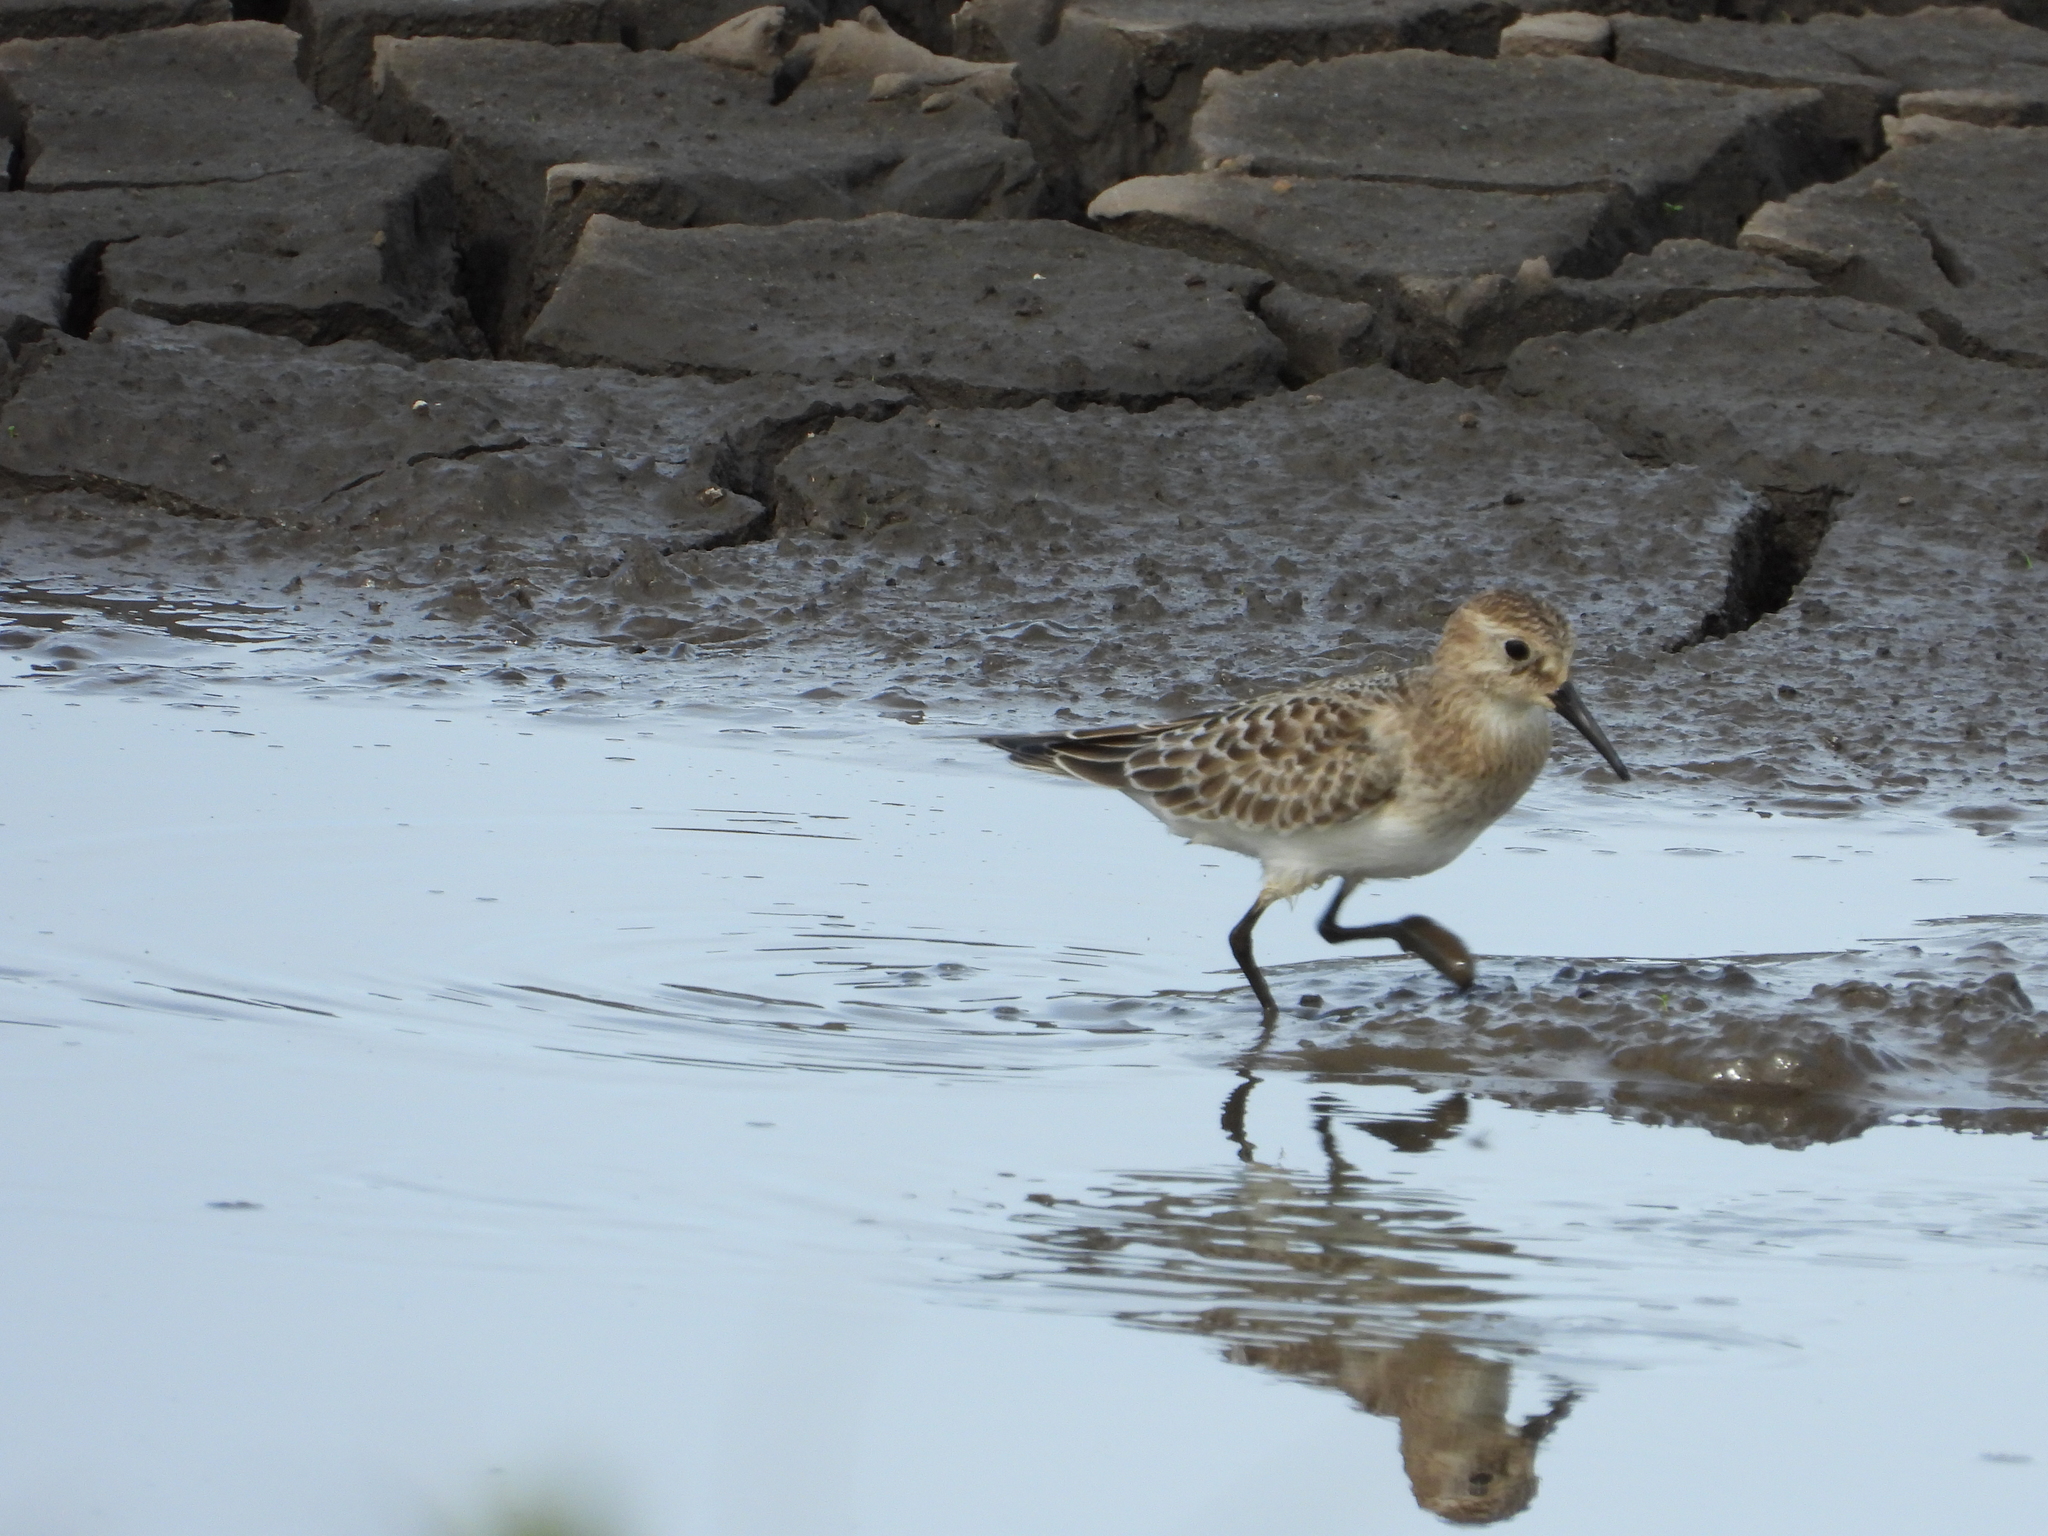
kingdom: Animalia
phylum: Chordata
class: Aves
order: Charadriiformes
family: Scolopacidae
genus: Calidris
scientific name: Calidris bairdii
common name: Baird's sandpiper
